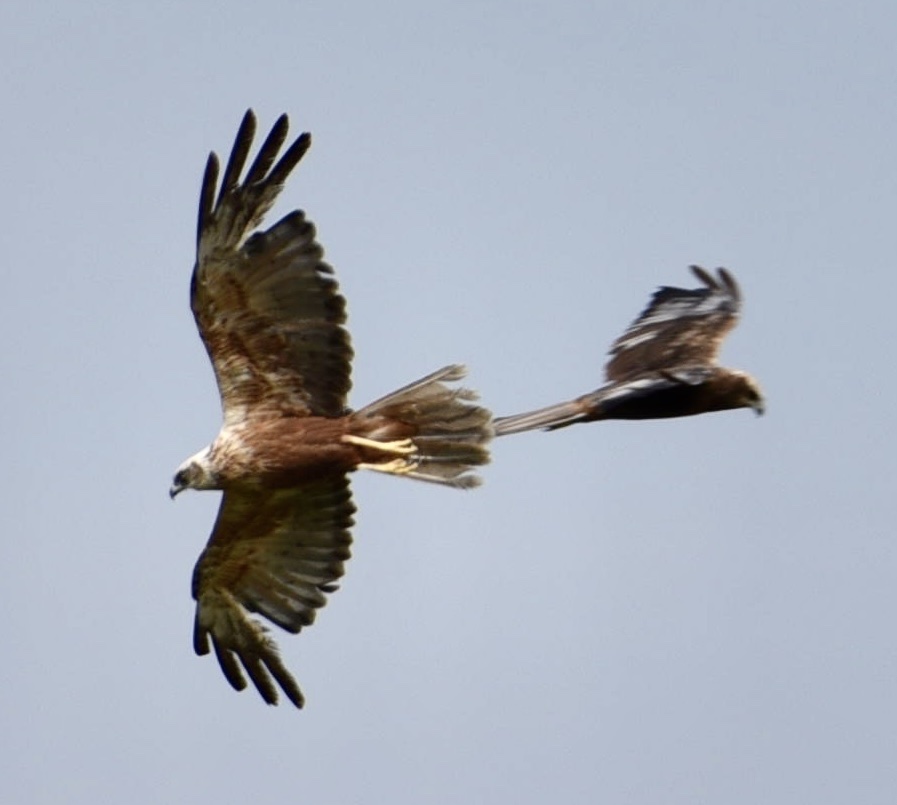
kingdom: Animalia
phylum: Chordata
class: Aves
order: Accipitriformes
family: Accipitridae
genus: Circus
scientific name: Circus aeruginosus
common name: Western marsh harrier
